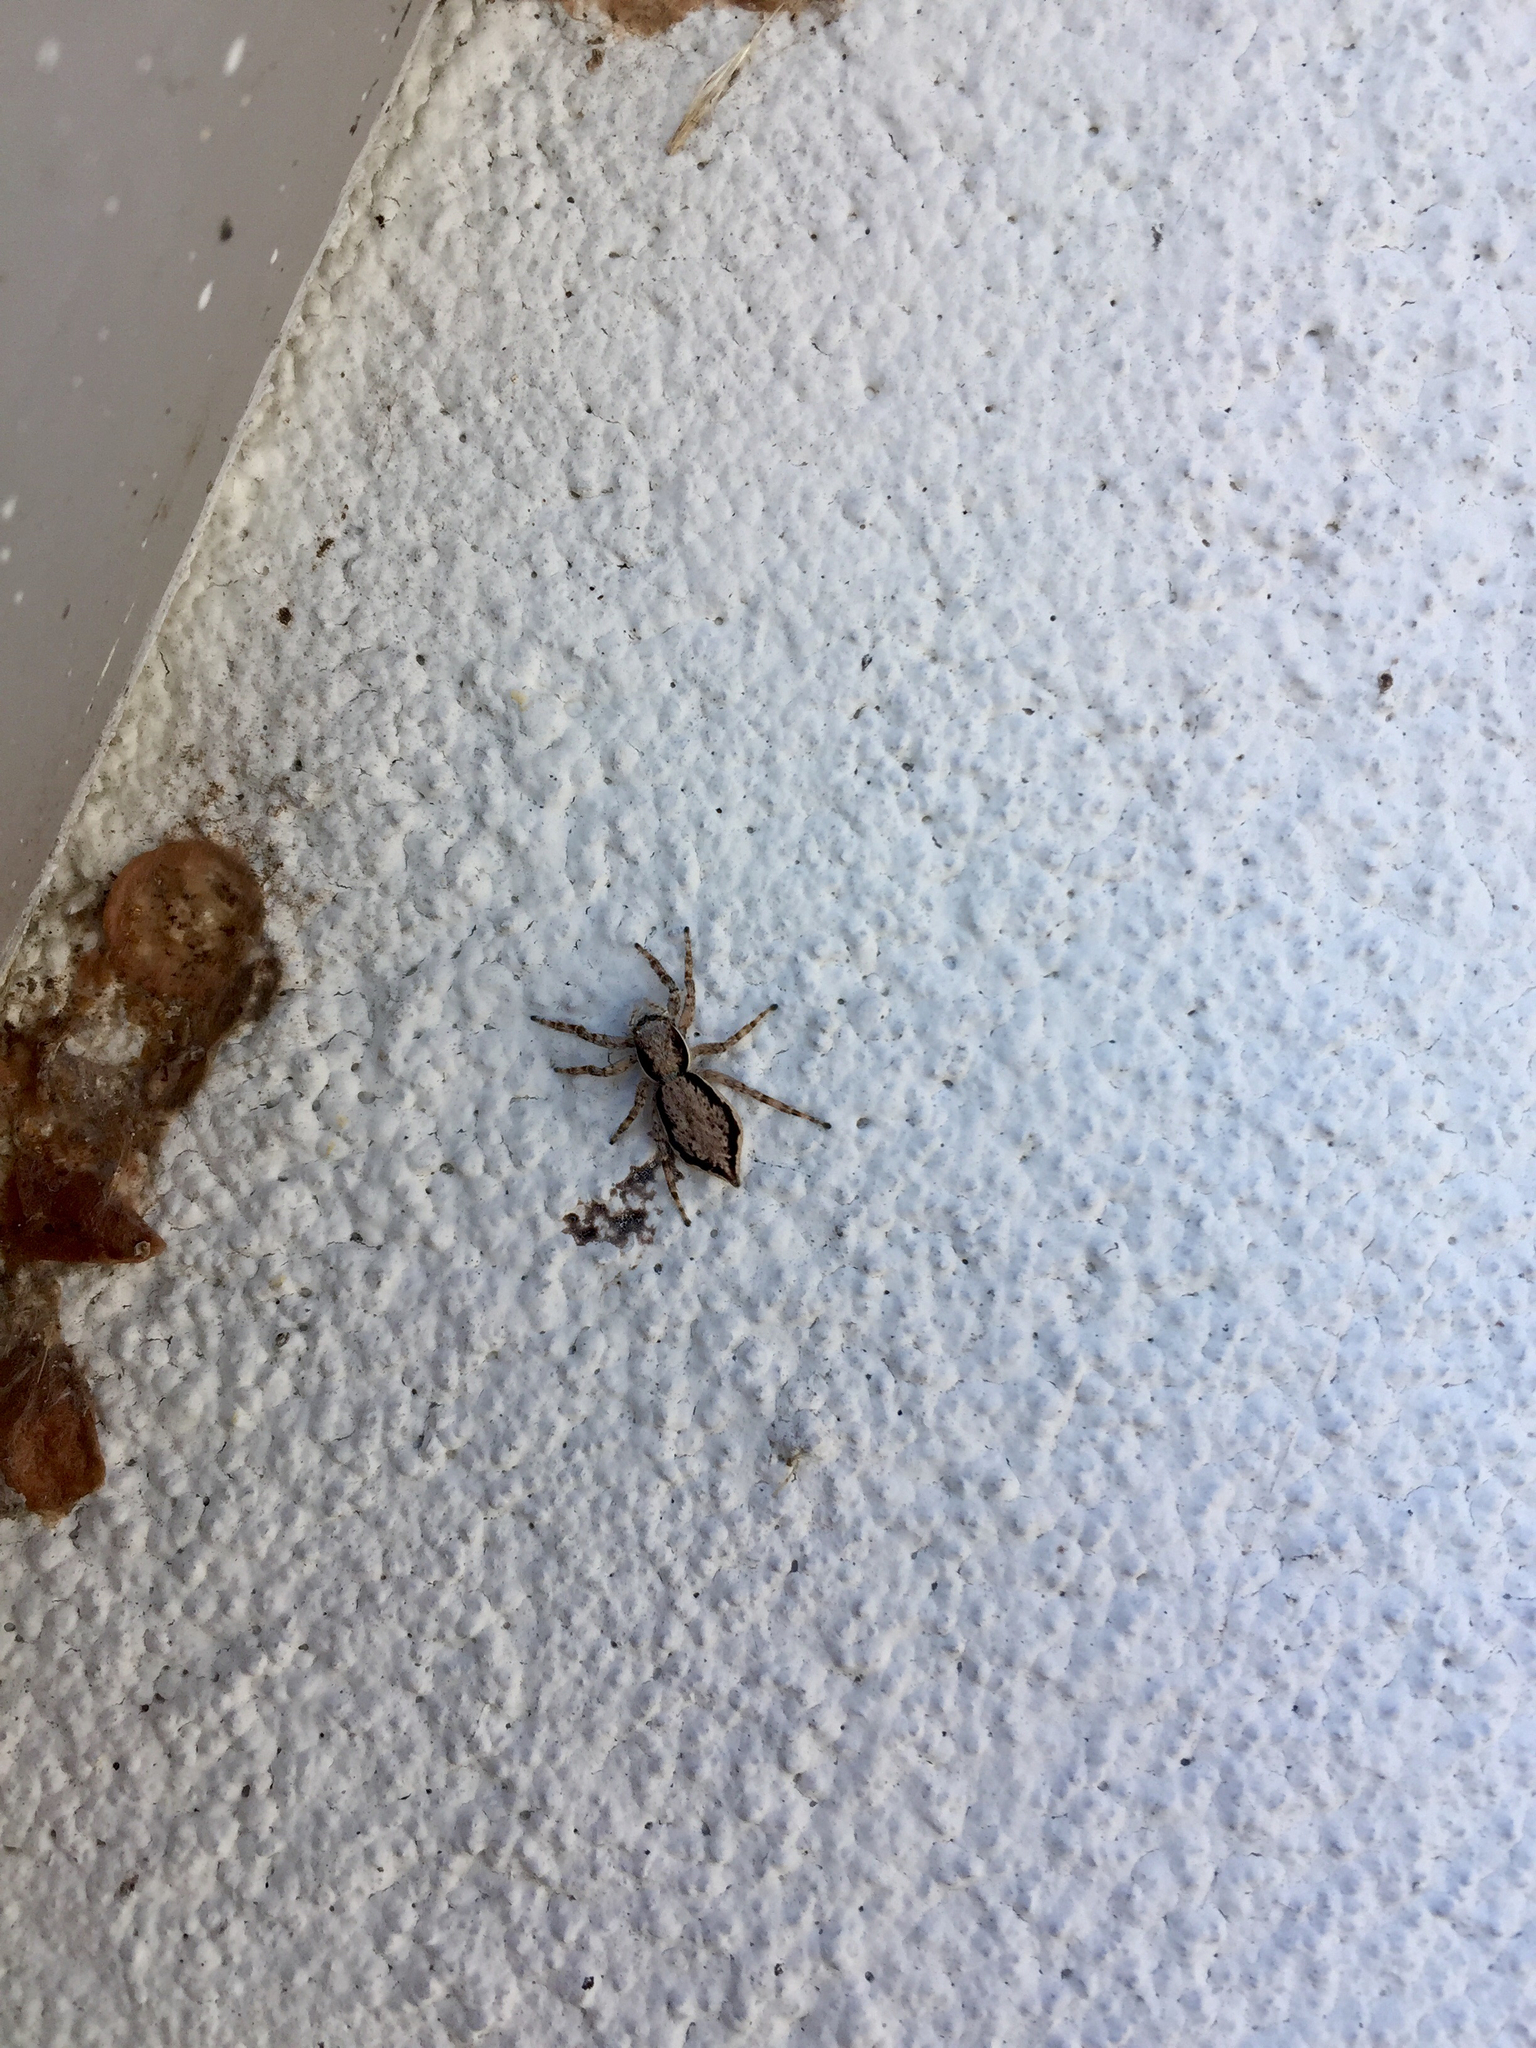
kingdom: Animalia
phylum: Arthropoda
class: Arachnida
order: Araneae
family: Salticidae
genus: Menemerus
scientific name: Menemerus bivittatus
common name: Gray wall jumper
